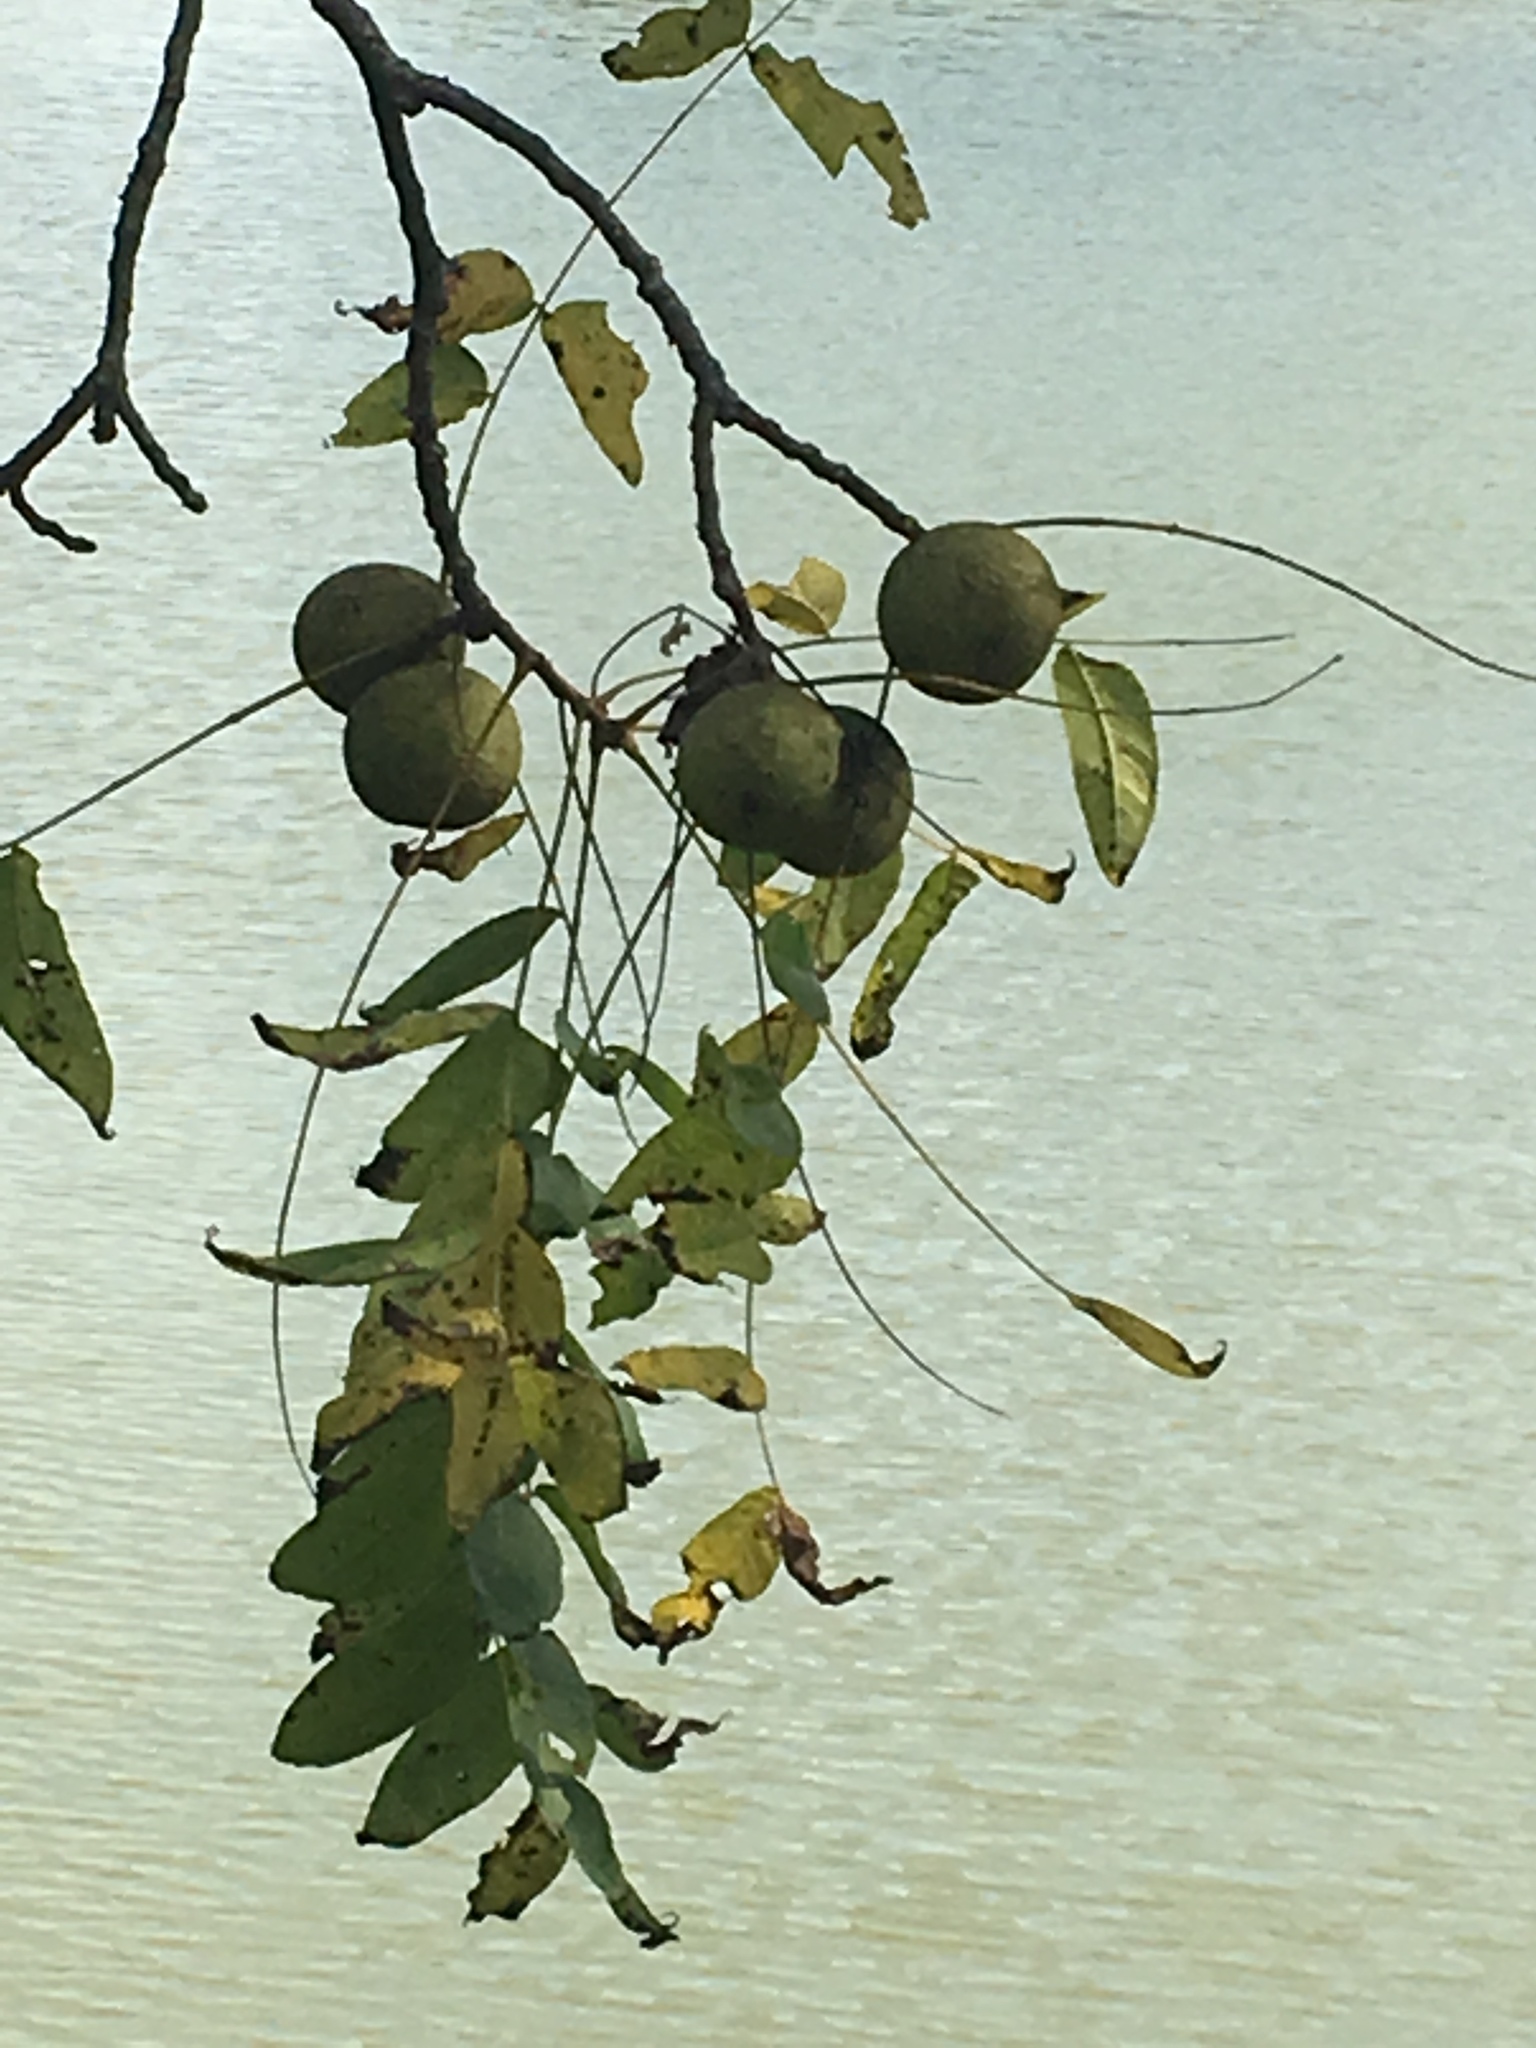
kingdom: Plantae
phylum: Tracheophyta
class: Magnoliopsida
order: Fagales
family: Juglandaceae
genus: Juglans
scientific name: Juglans nigra
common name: Black walnut
